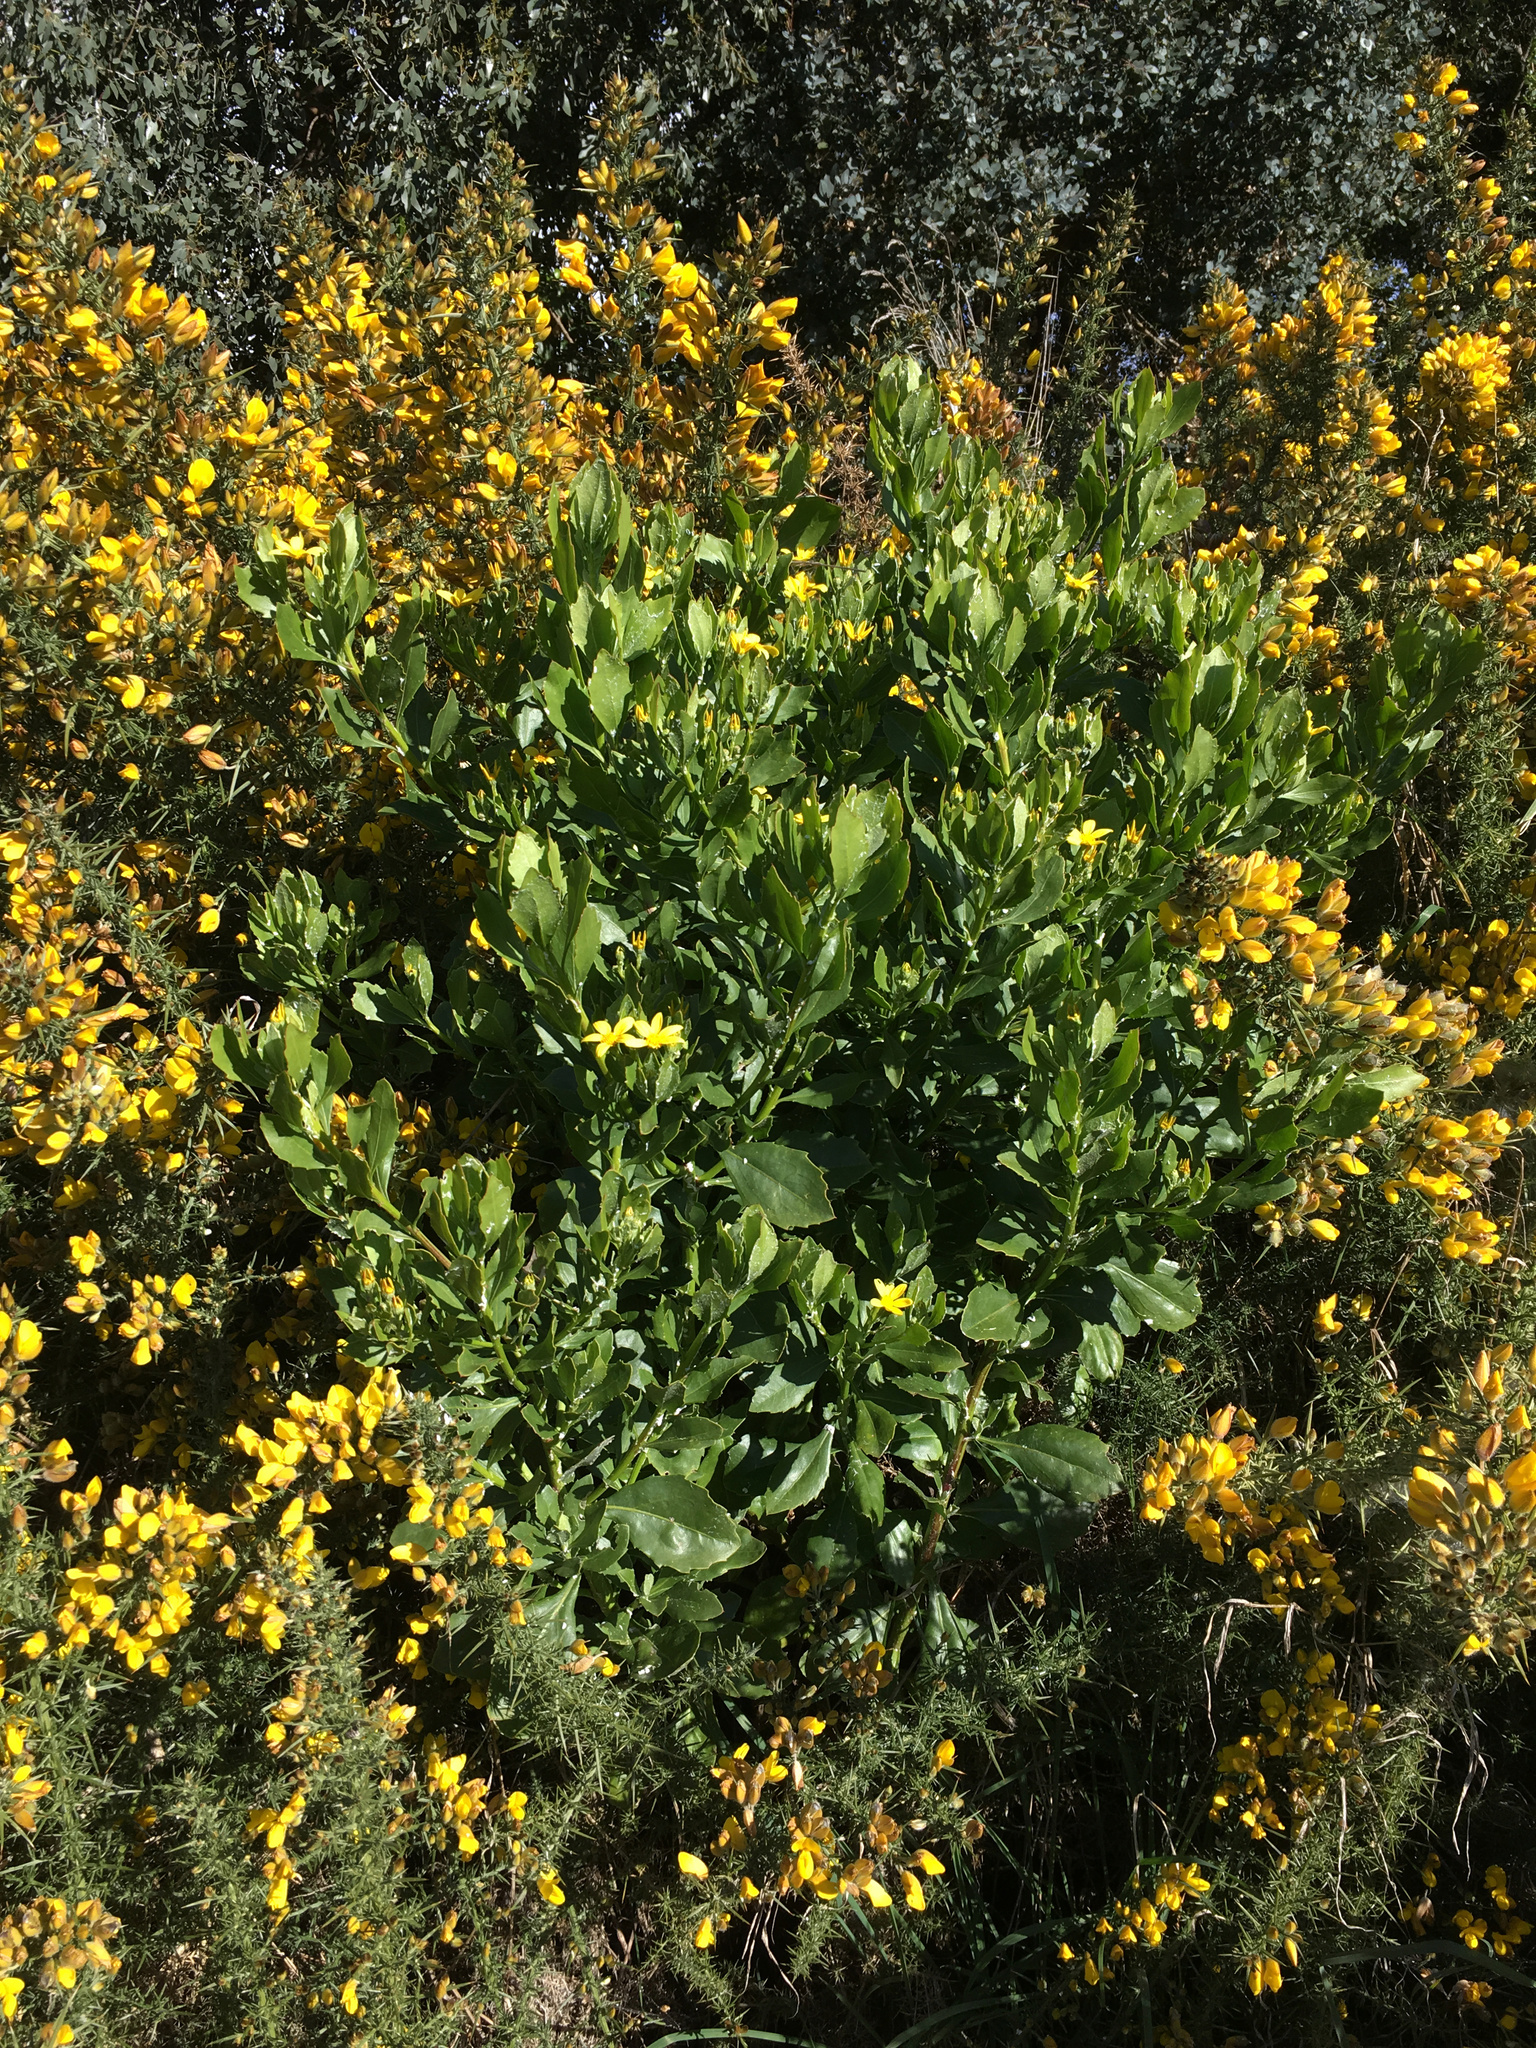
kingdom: Plantae
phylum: Tracheophyta
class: Magnoliopsida
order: Asterales
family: Asteraceae
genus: Osteospermum
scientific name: Osteospermum moniliferum
